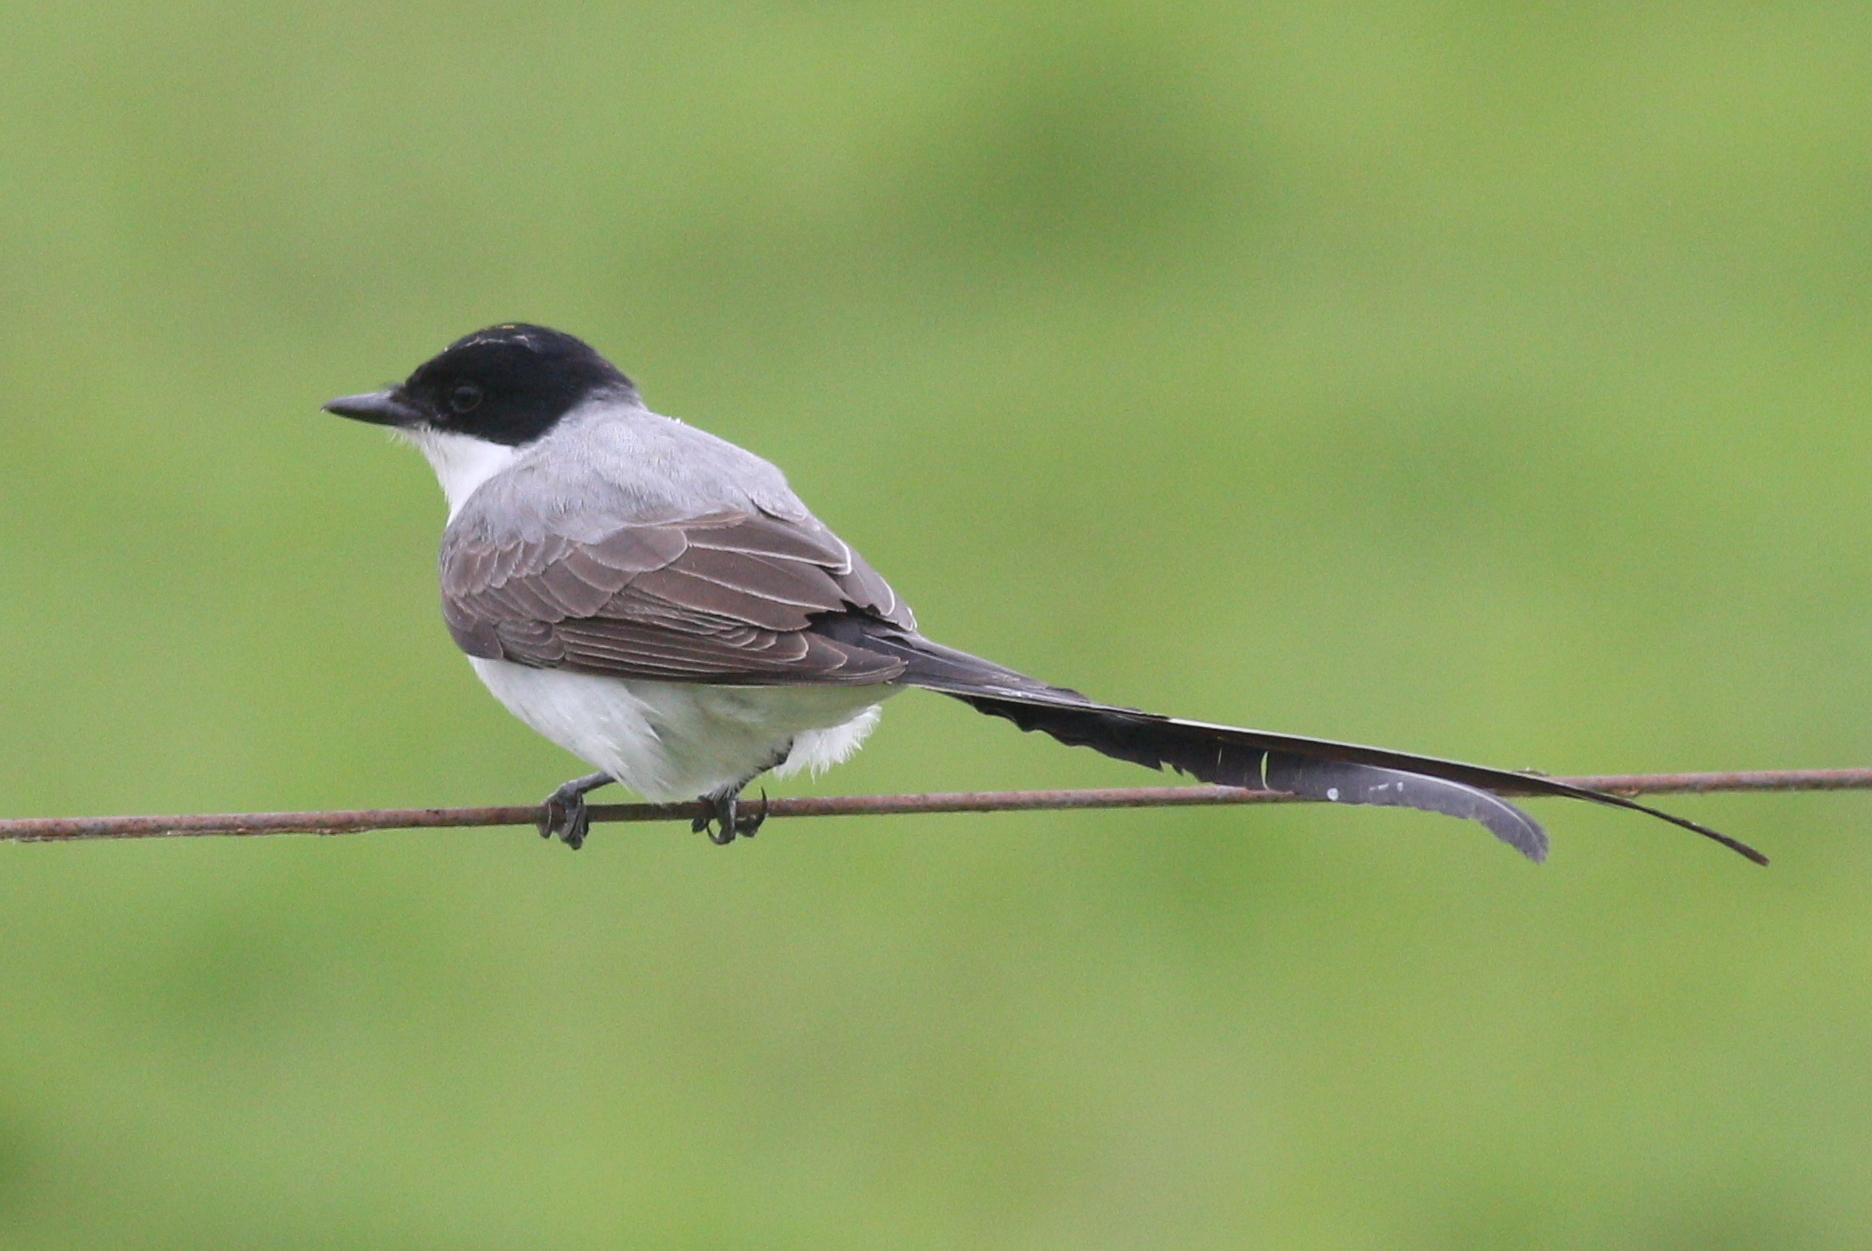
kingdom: Animalia
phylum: Chordata
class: Aves
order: Passeriformes
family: Tyrannidae
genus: Tyrannus
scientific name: Tyrannus savana
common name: Fork-tailed flycatcher
